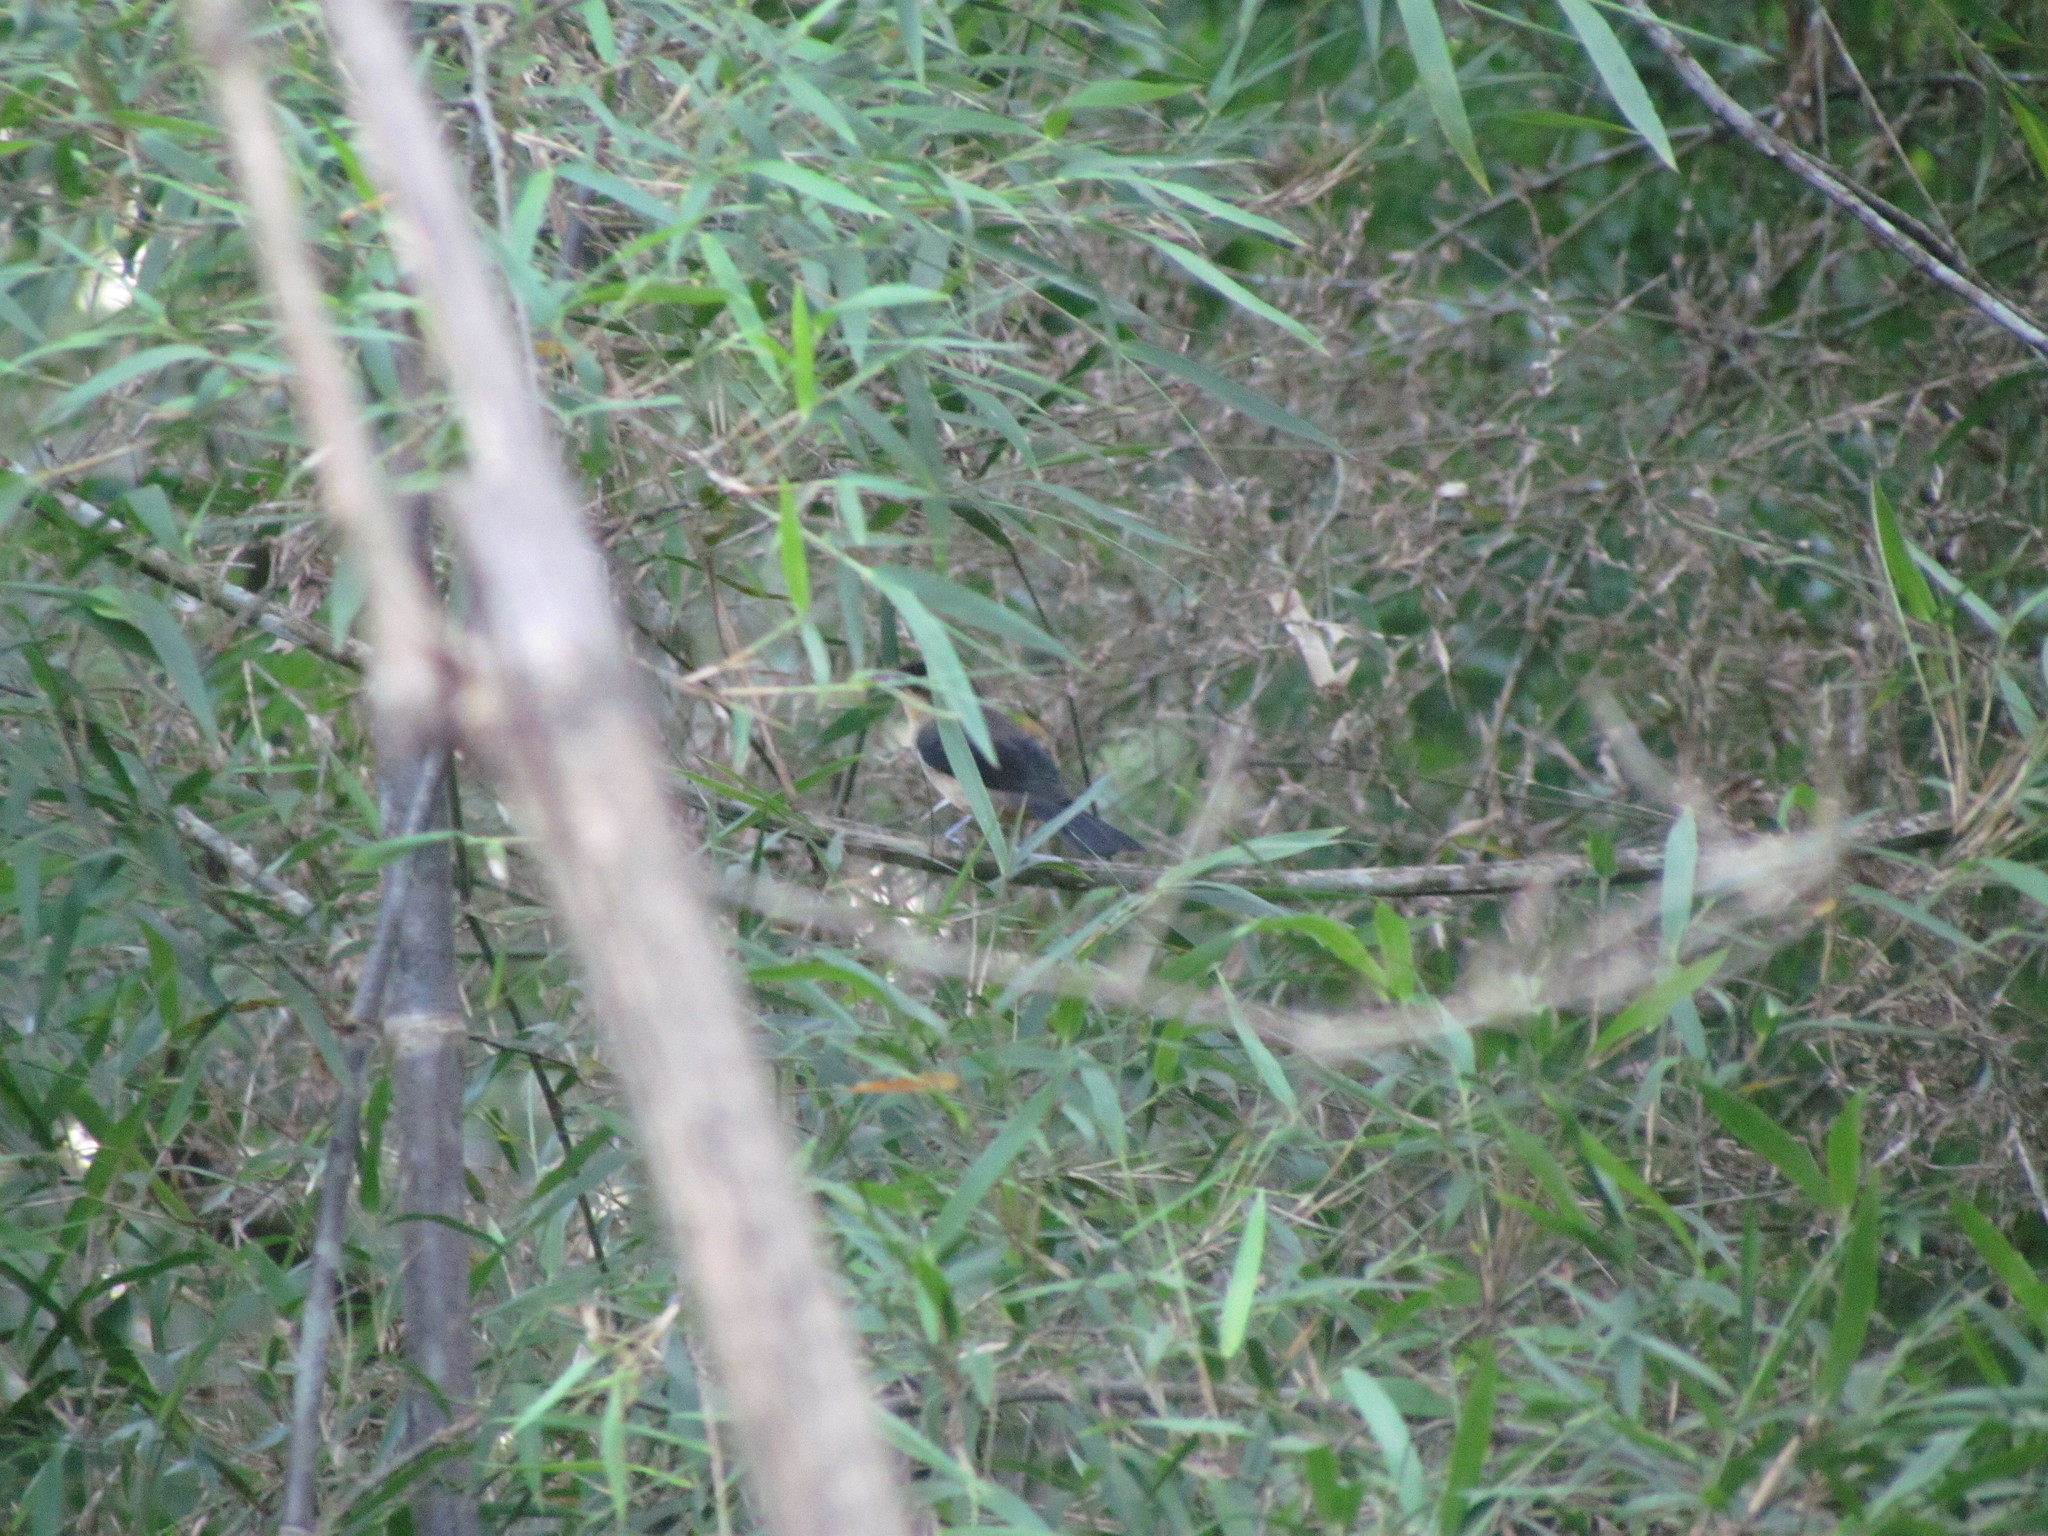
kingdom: Animalia
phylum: Chordata
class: Aves
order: Passeriformes
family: Thraupidae
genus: Trichothraupis
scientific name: Trichothraupis melanops
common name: Black-goggled tanager
